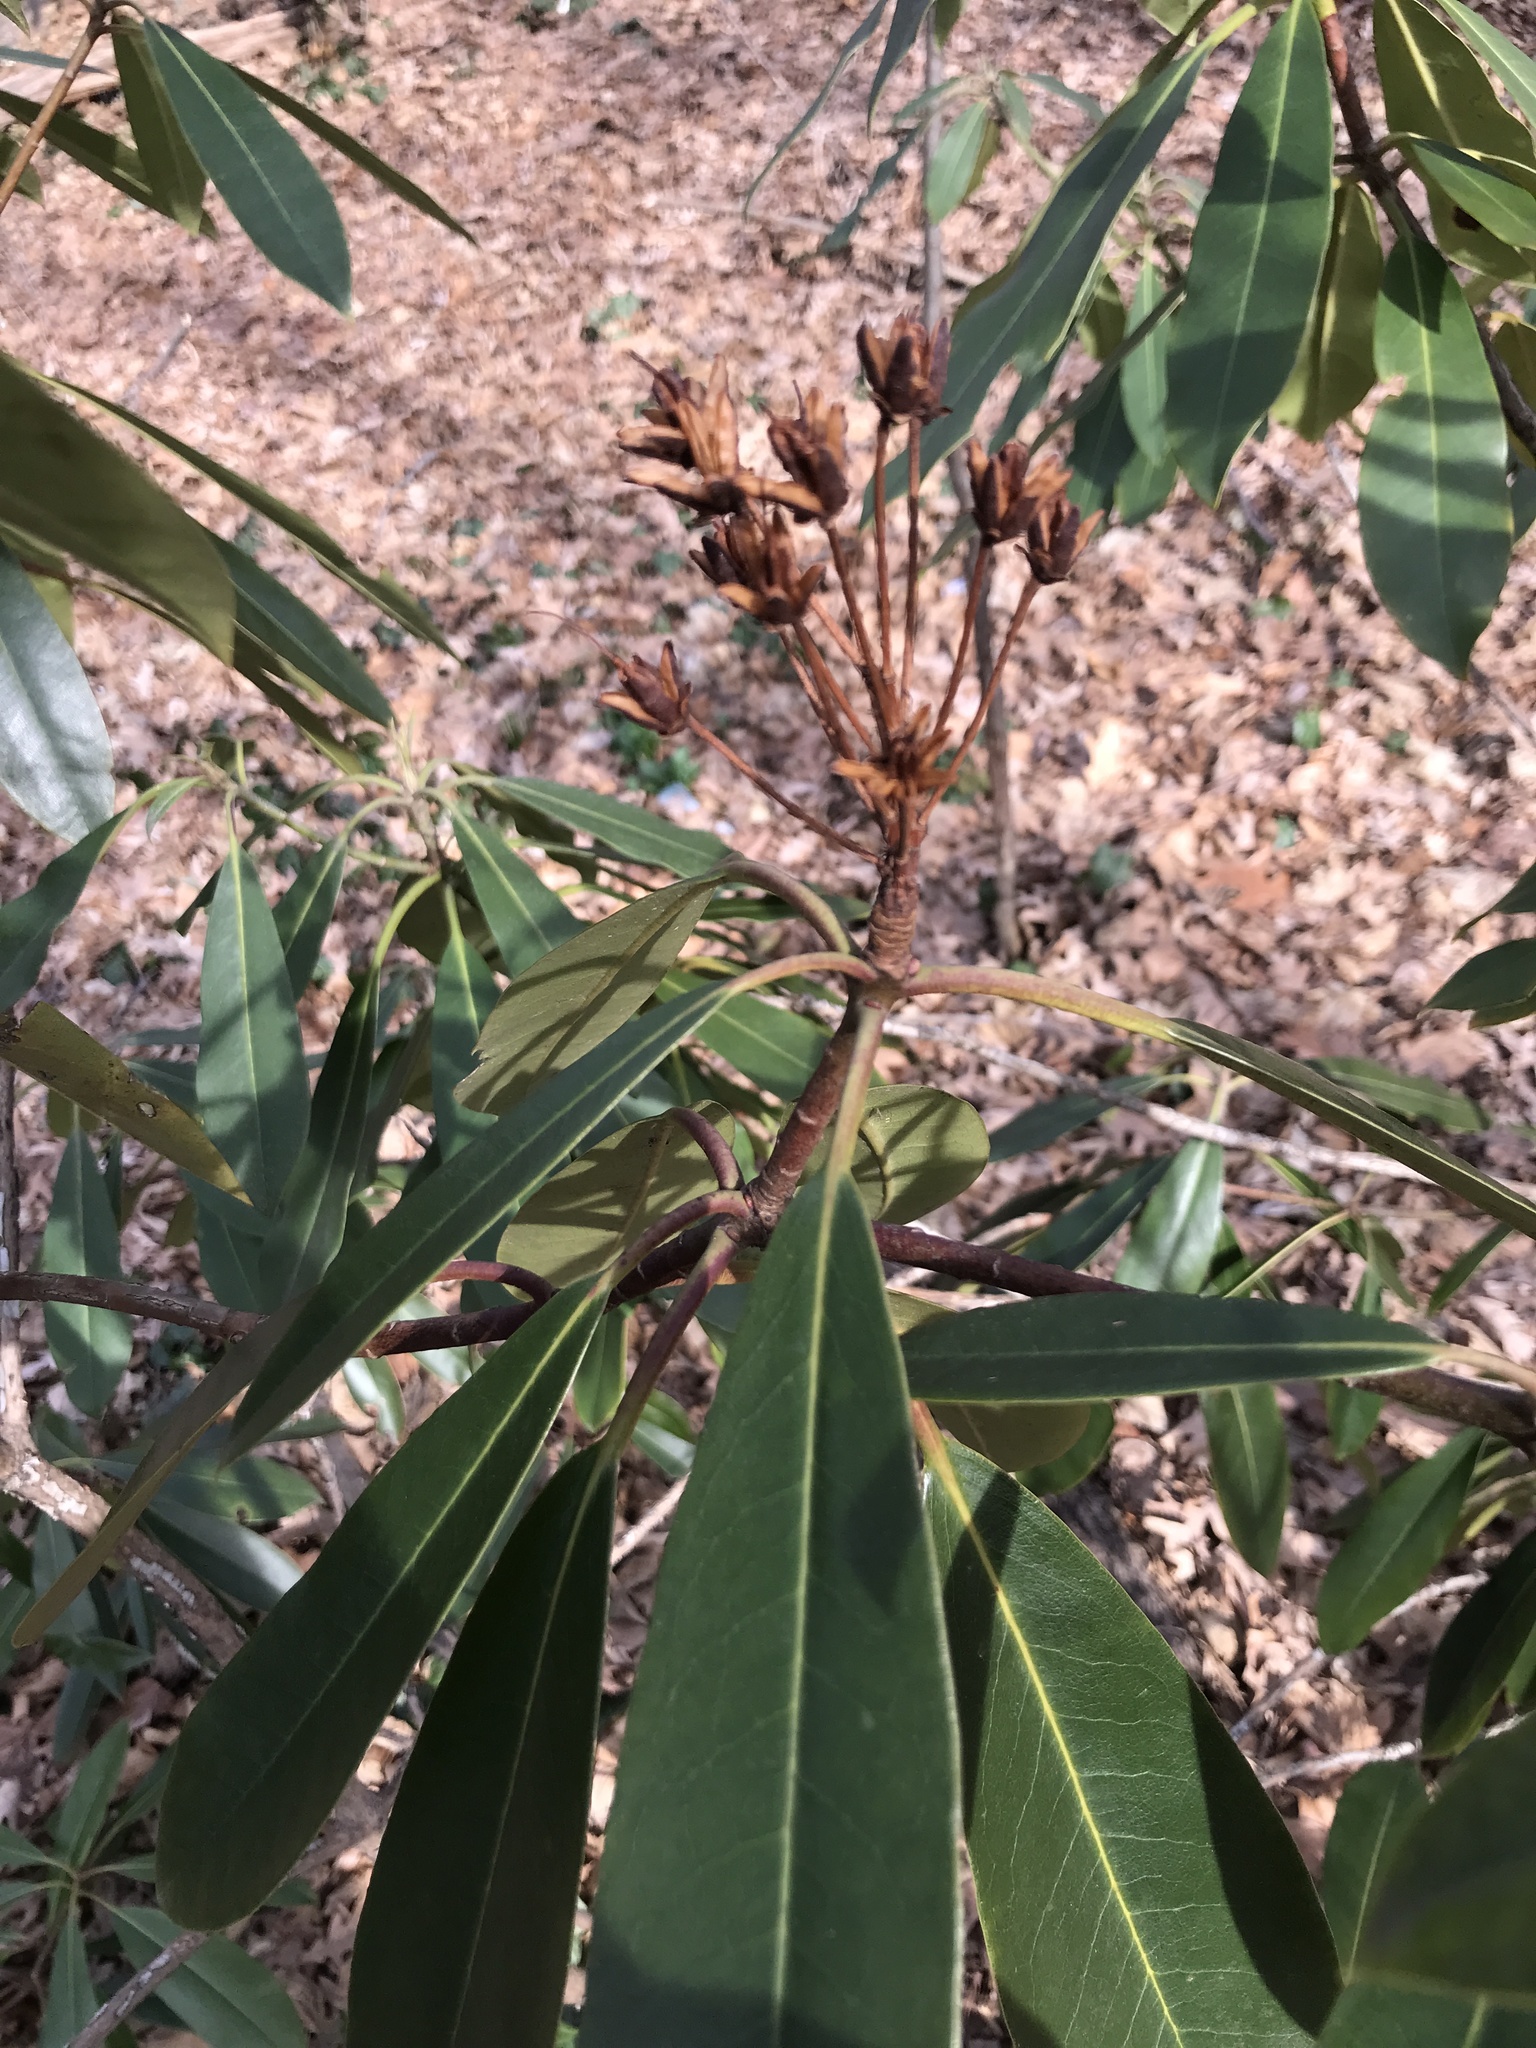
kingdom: Plantae
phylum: Tracheophyta
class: Magnoliopsida
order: Ericales
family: Ericaceae
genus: Rhododendron
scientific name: Rhododendron maximum
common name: Great rhododendron
